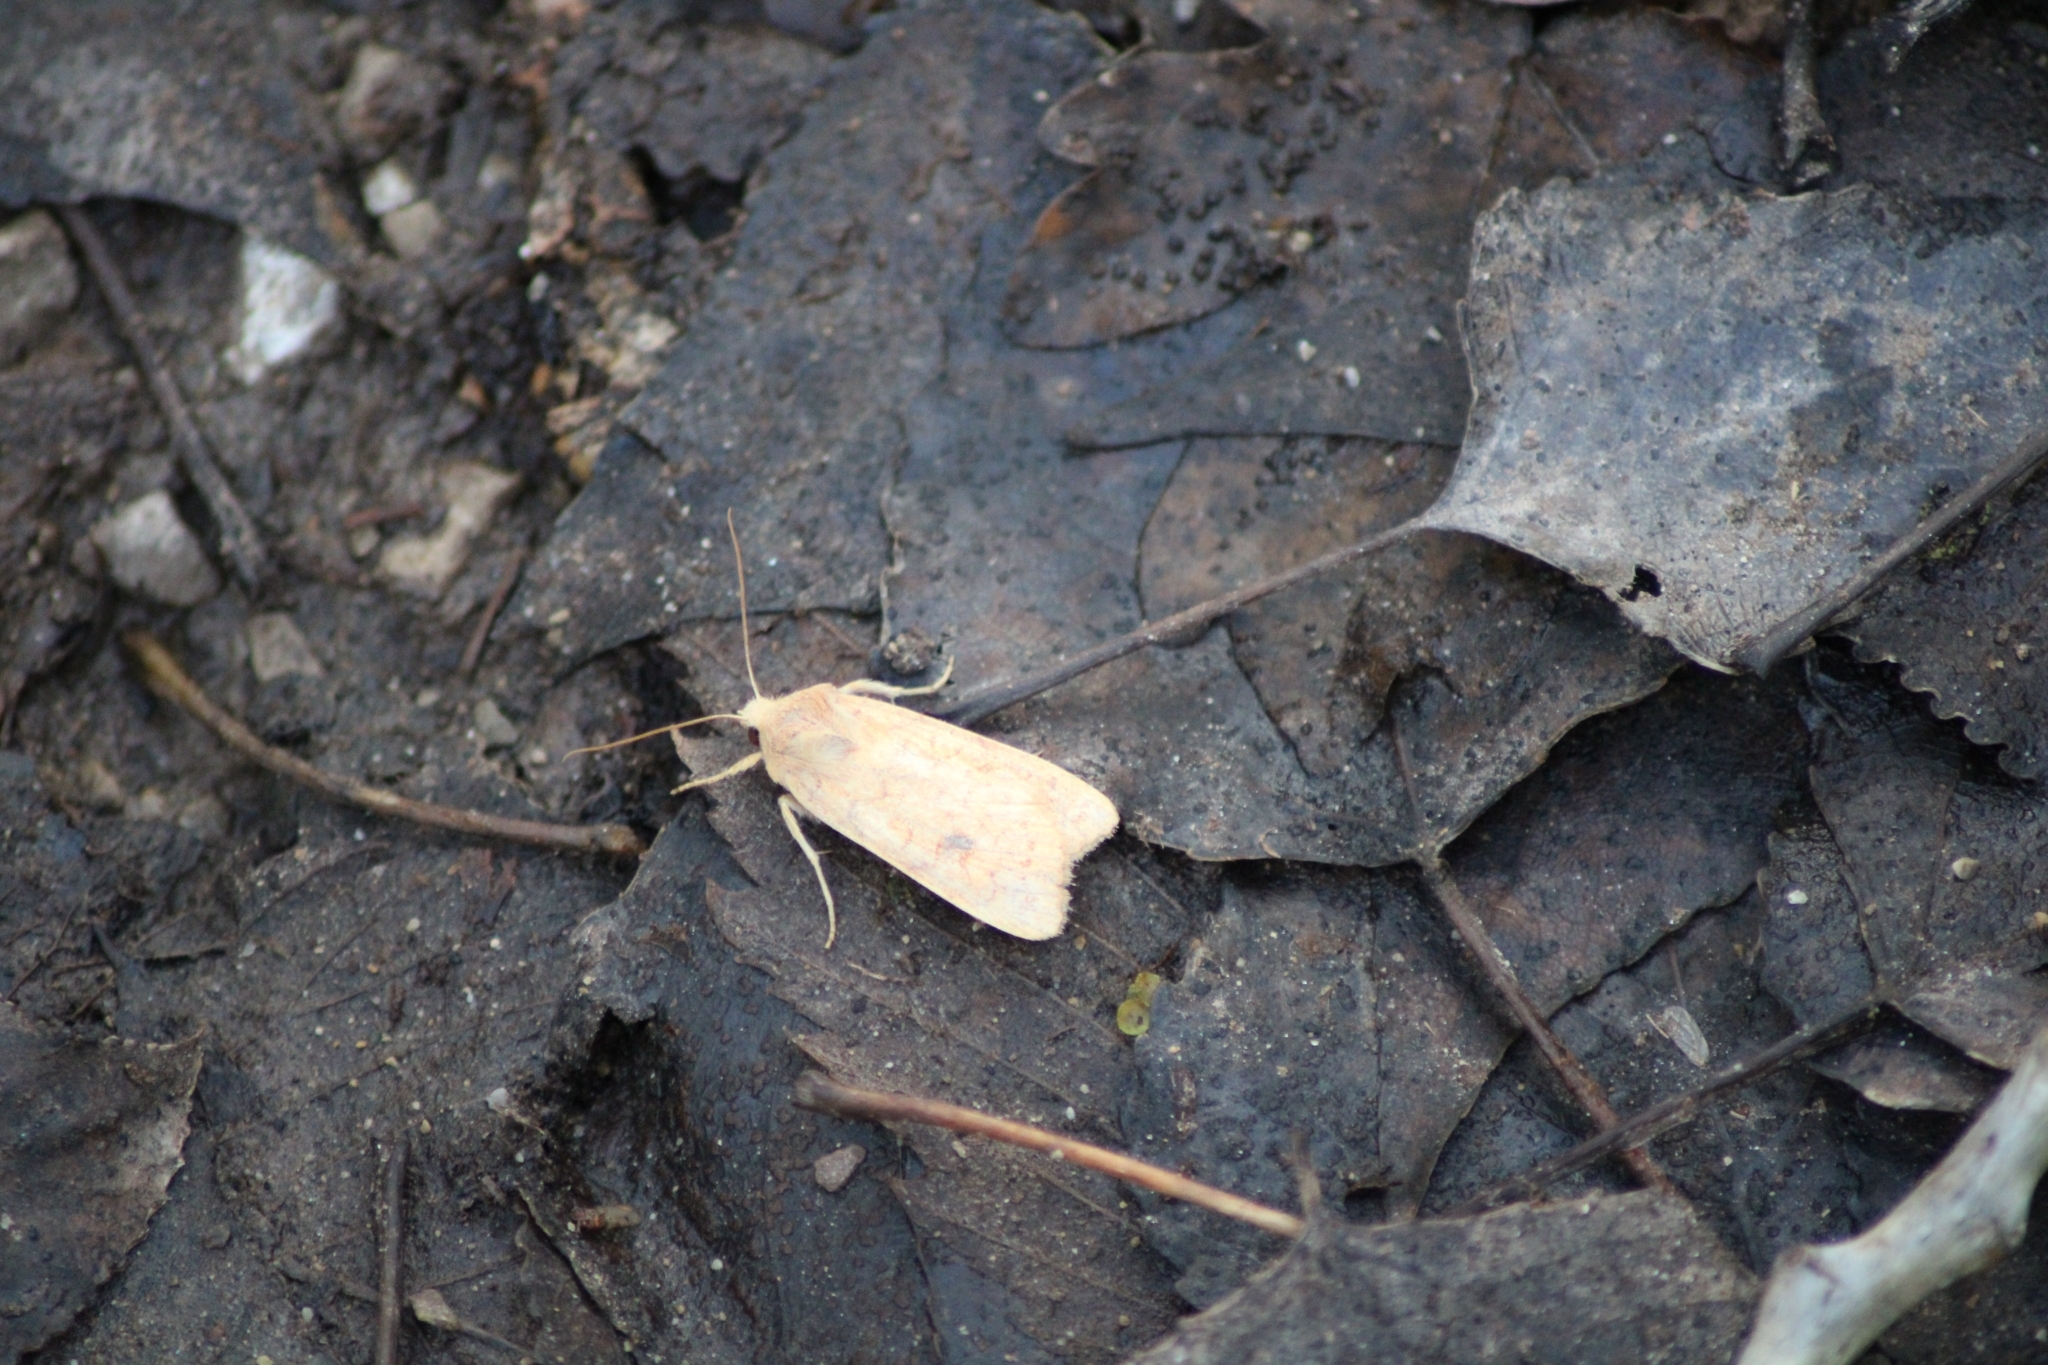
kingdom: Animalia
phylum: Arthropoda
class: Insecta
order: Lepidoptera
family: Noctuidae
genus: Sunira
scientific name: Sunira circellaris
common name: Brick
